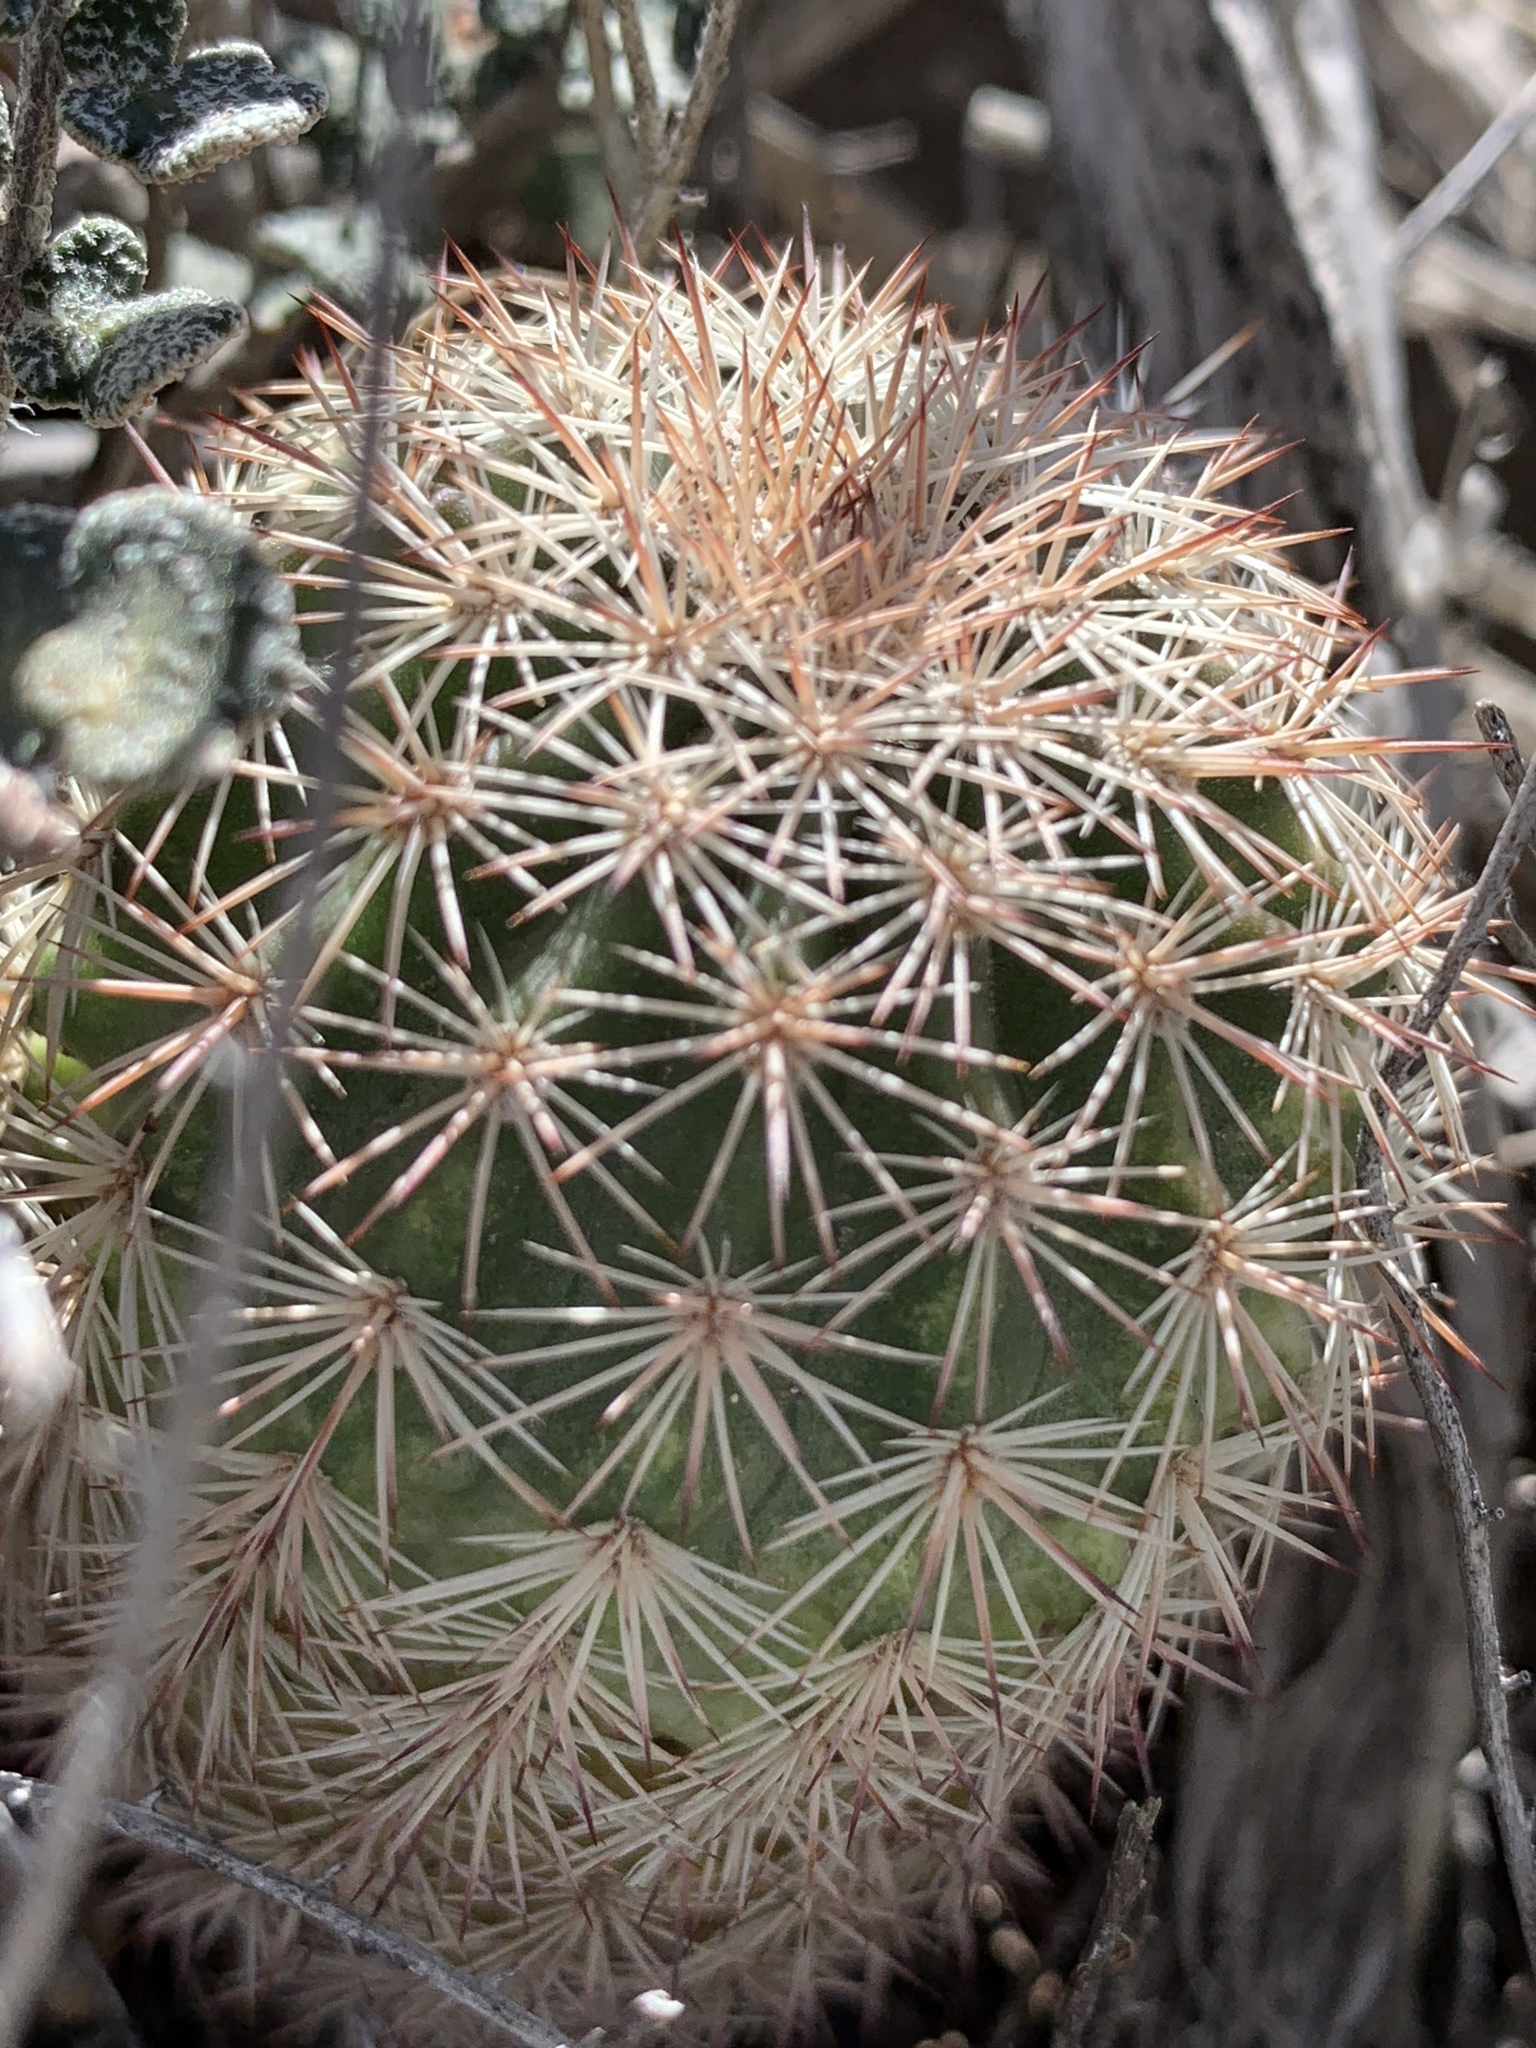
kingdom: Plantae
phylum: Tracheophyta
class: Magnoliopsida
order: Caryophyllales
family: Cactaceae
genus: Echinocereus
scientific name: Echinocereus roetteri
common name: Lloyd's hedgehog cactus
